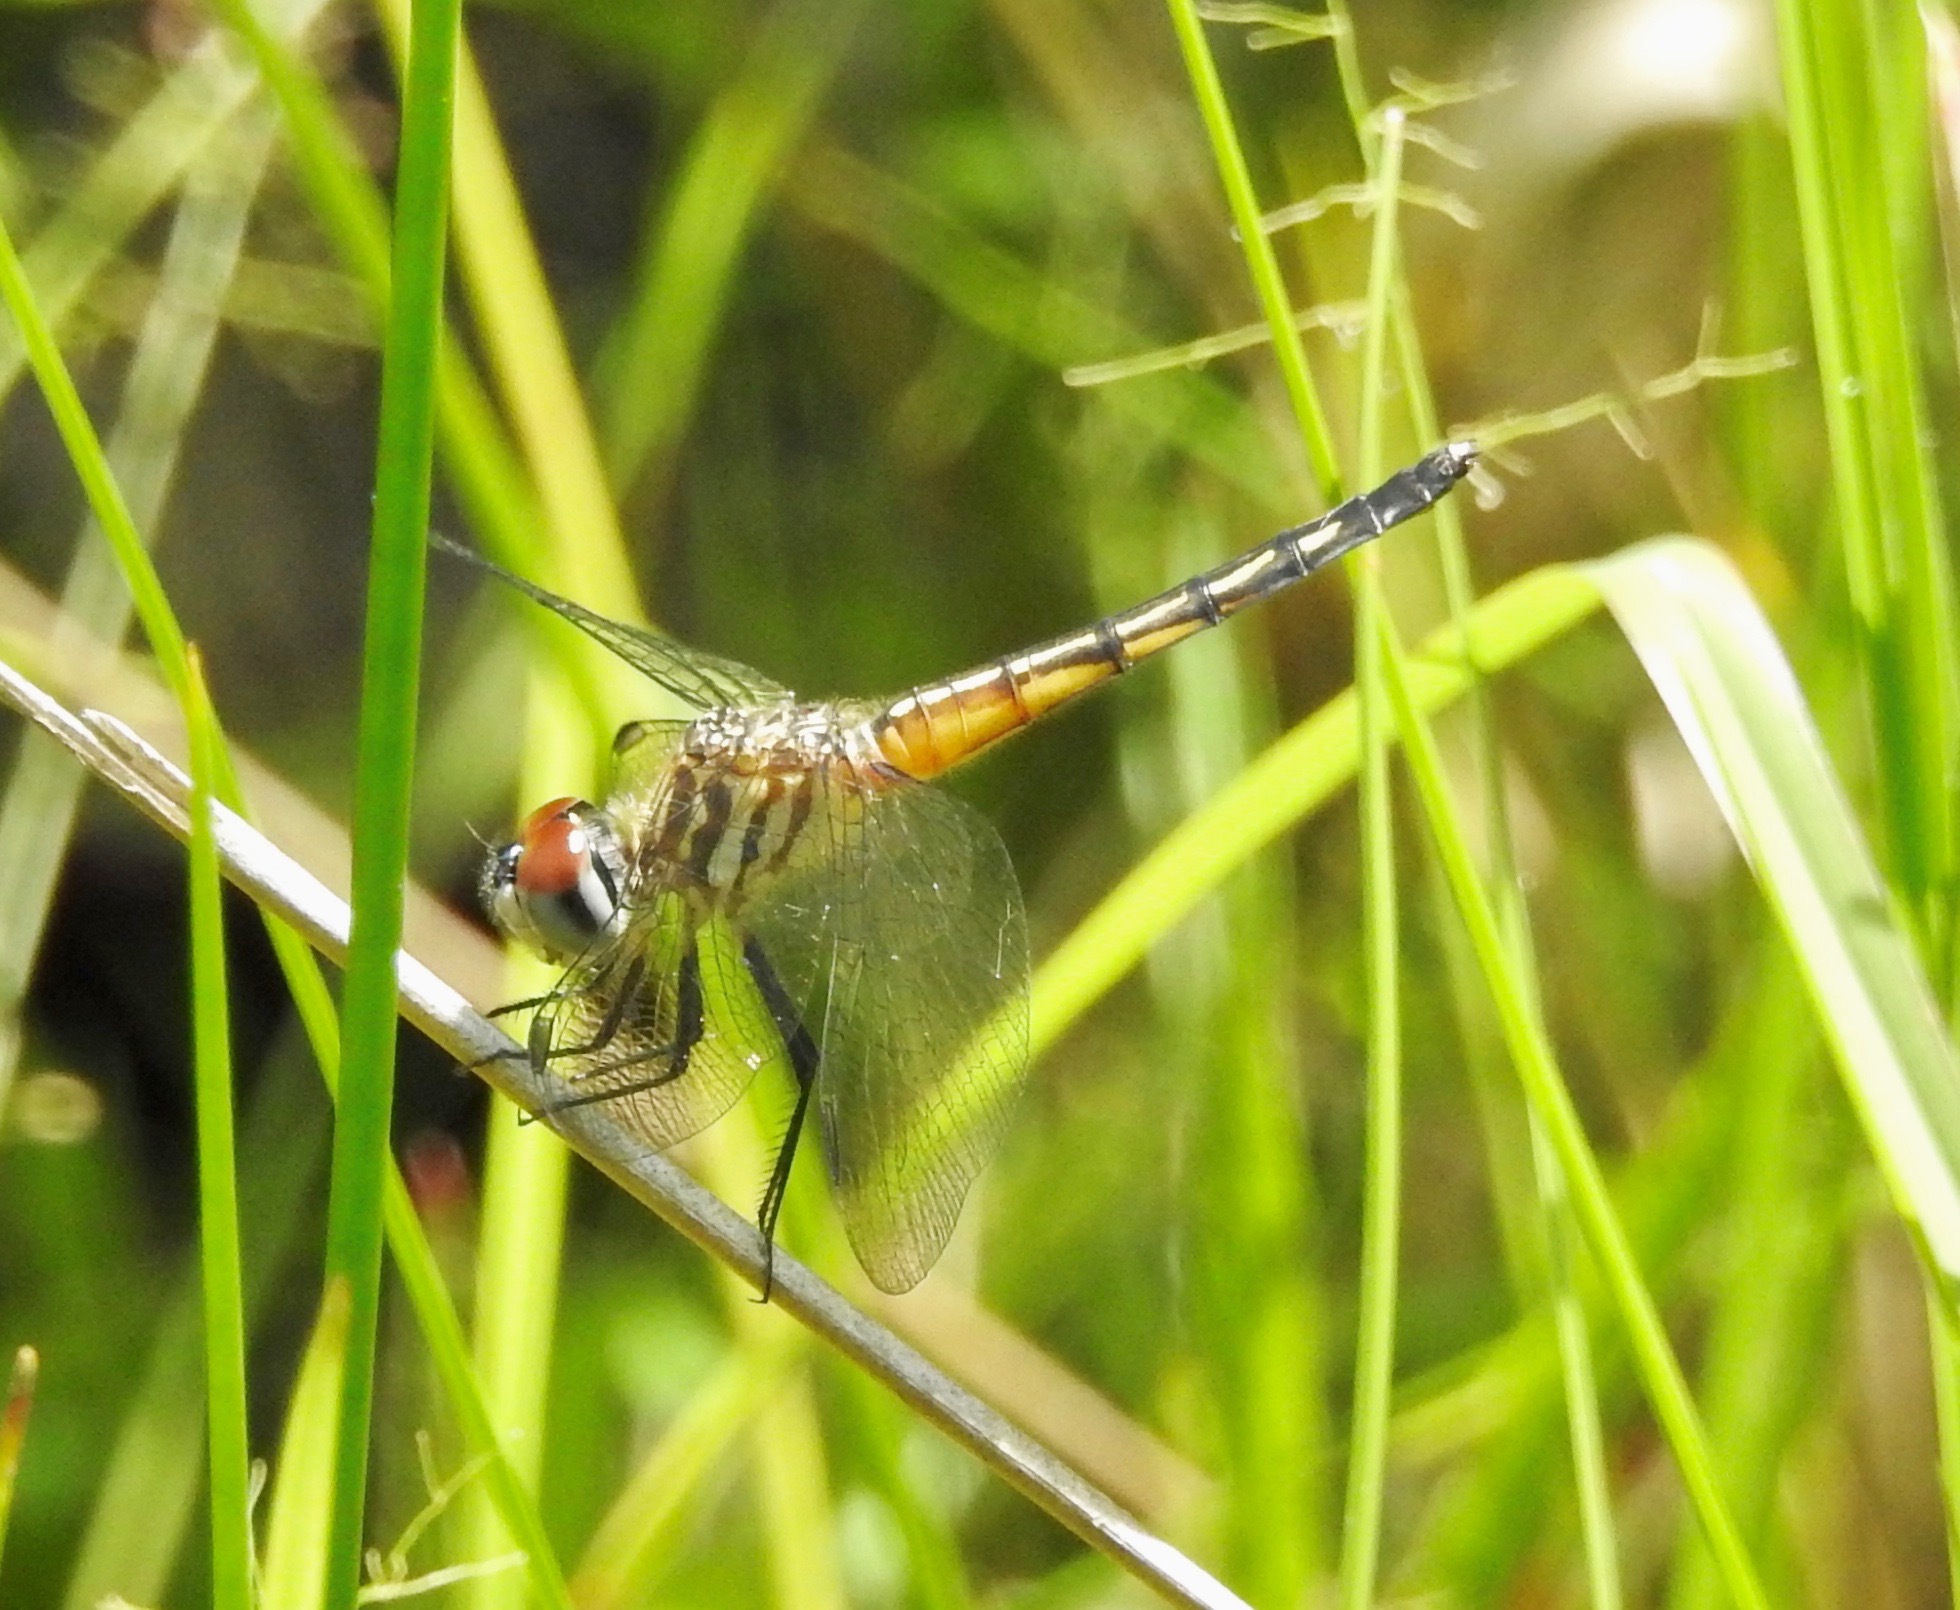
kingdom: Animalia
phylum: Arthropoda
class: Insecta
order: Odonata
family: Libellulidae
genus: Pachydiplax
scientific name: Pachydiplax longipennis
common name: Blue dasher
